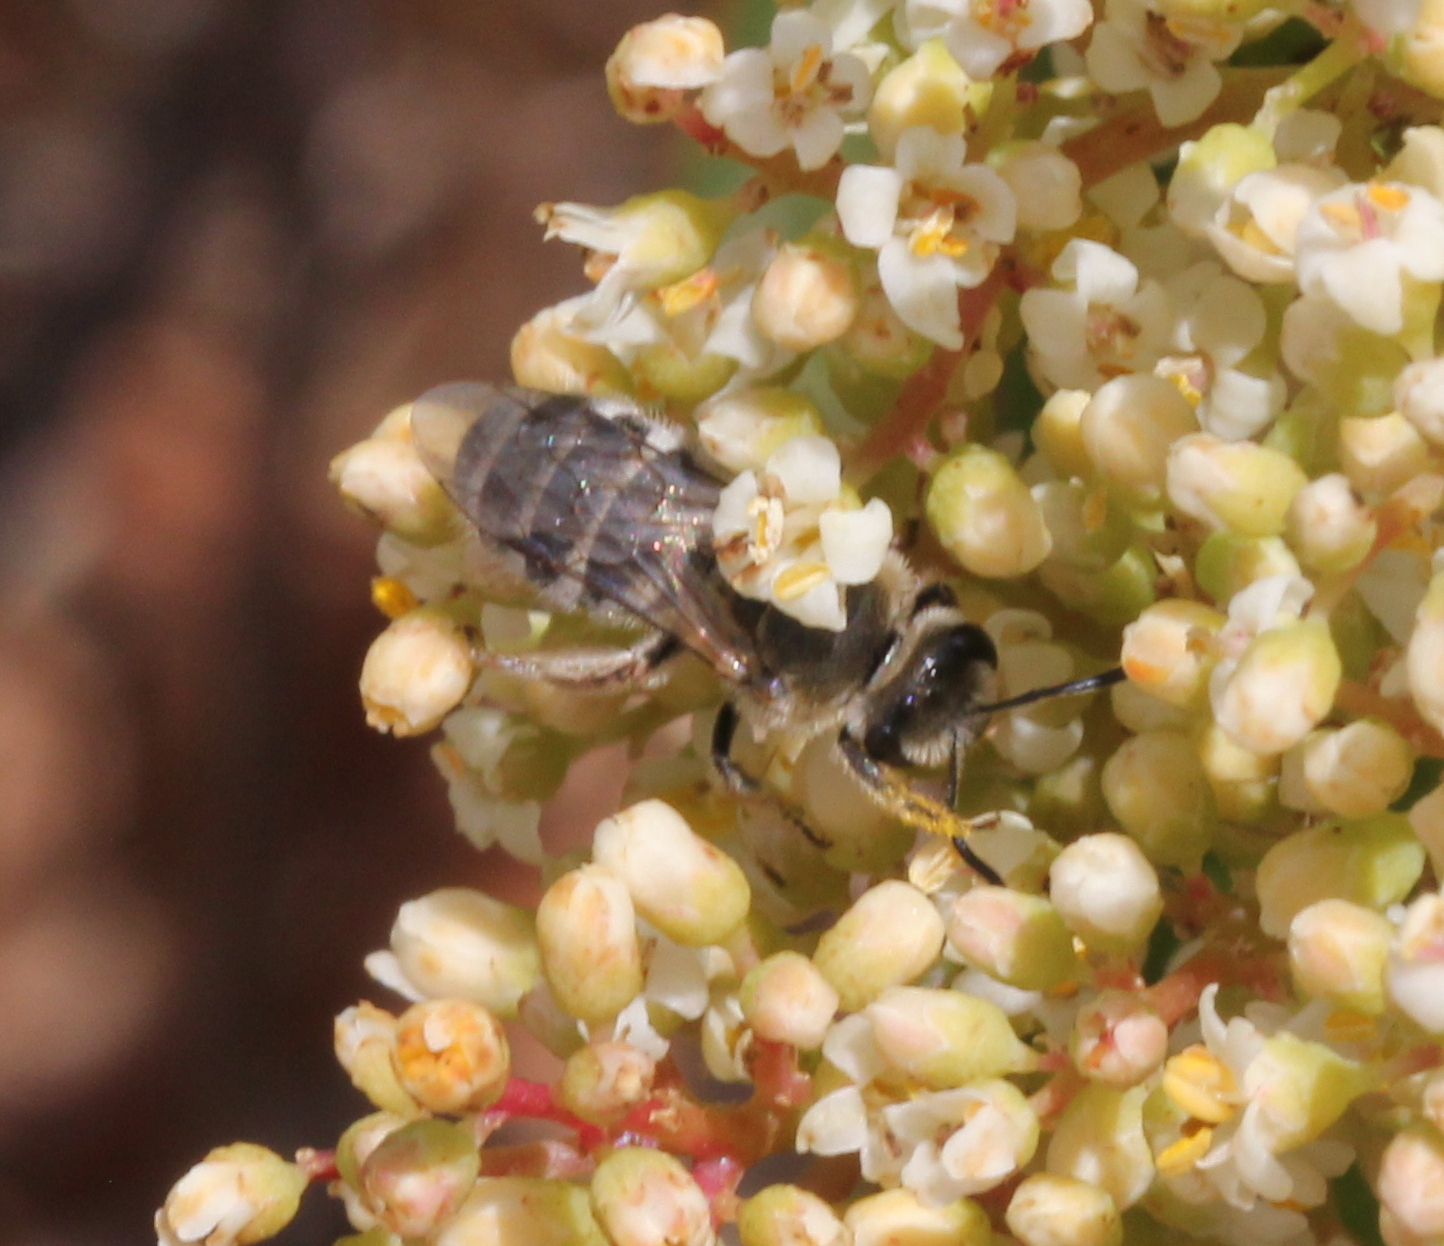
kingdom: Animalia
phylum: Arthropoda
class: Insecta
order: Hymenoptera
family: Halictidae
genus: Lasioglossum
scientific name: Lasioglossum sisymbrii
